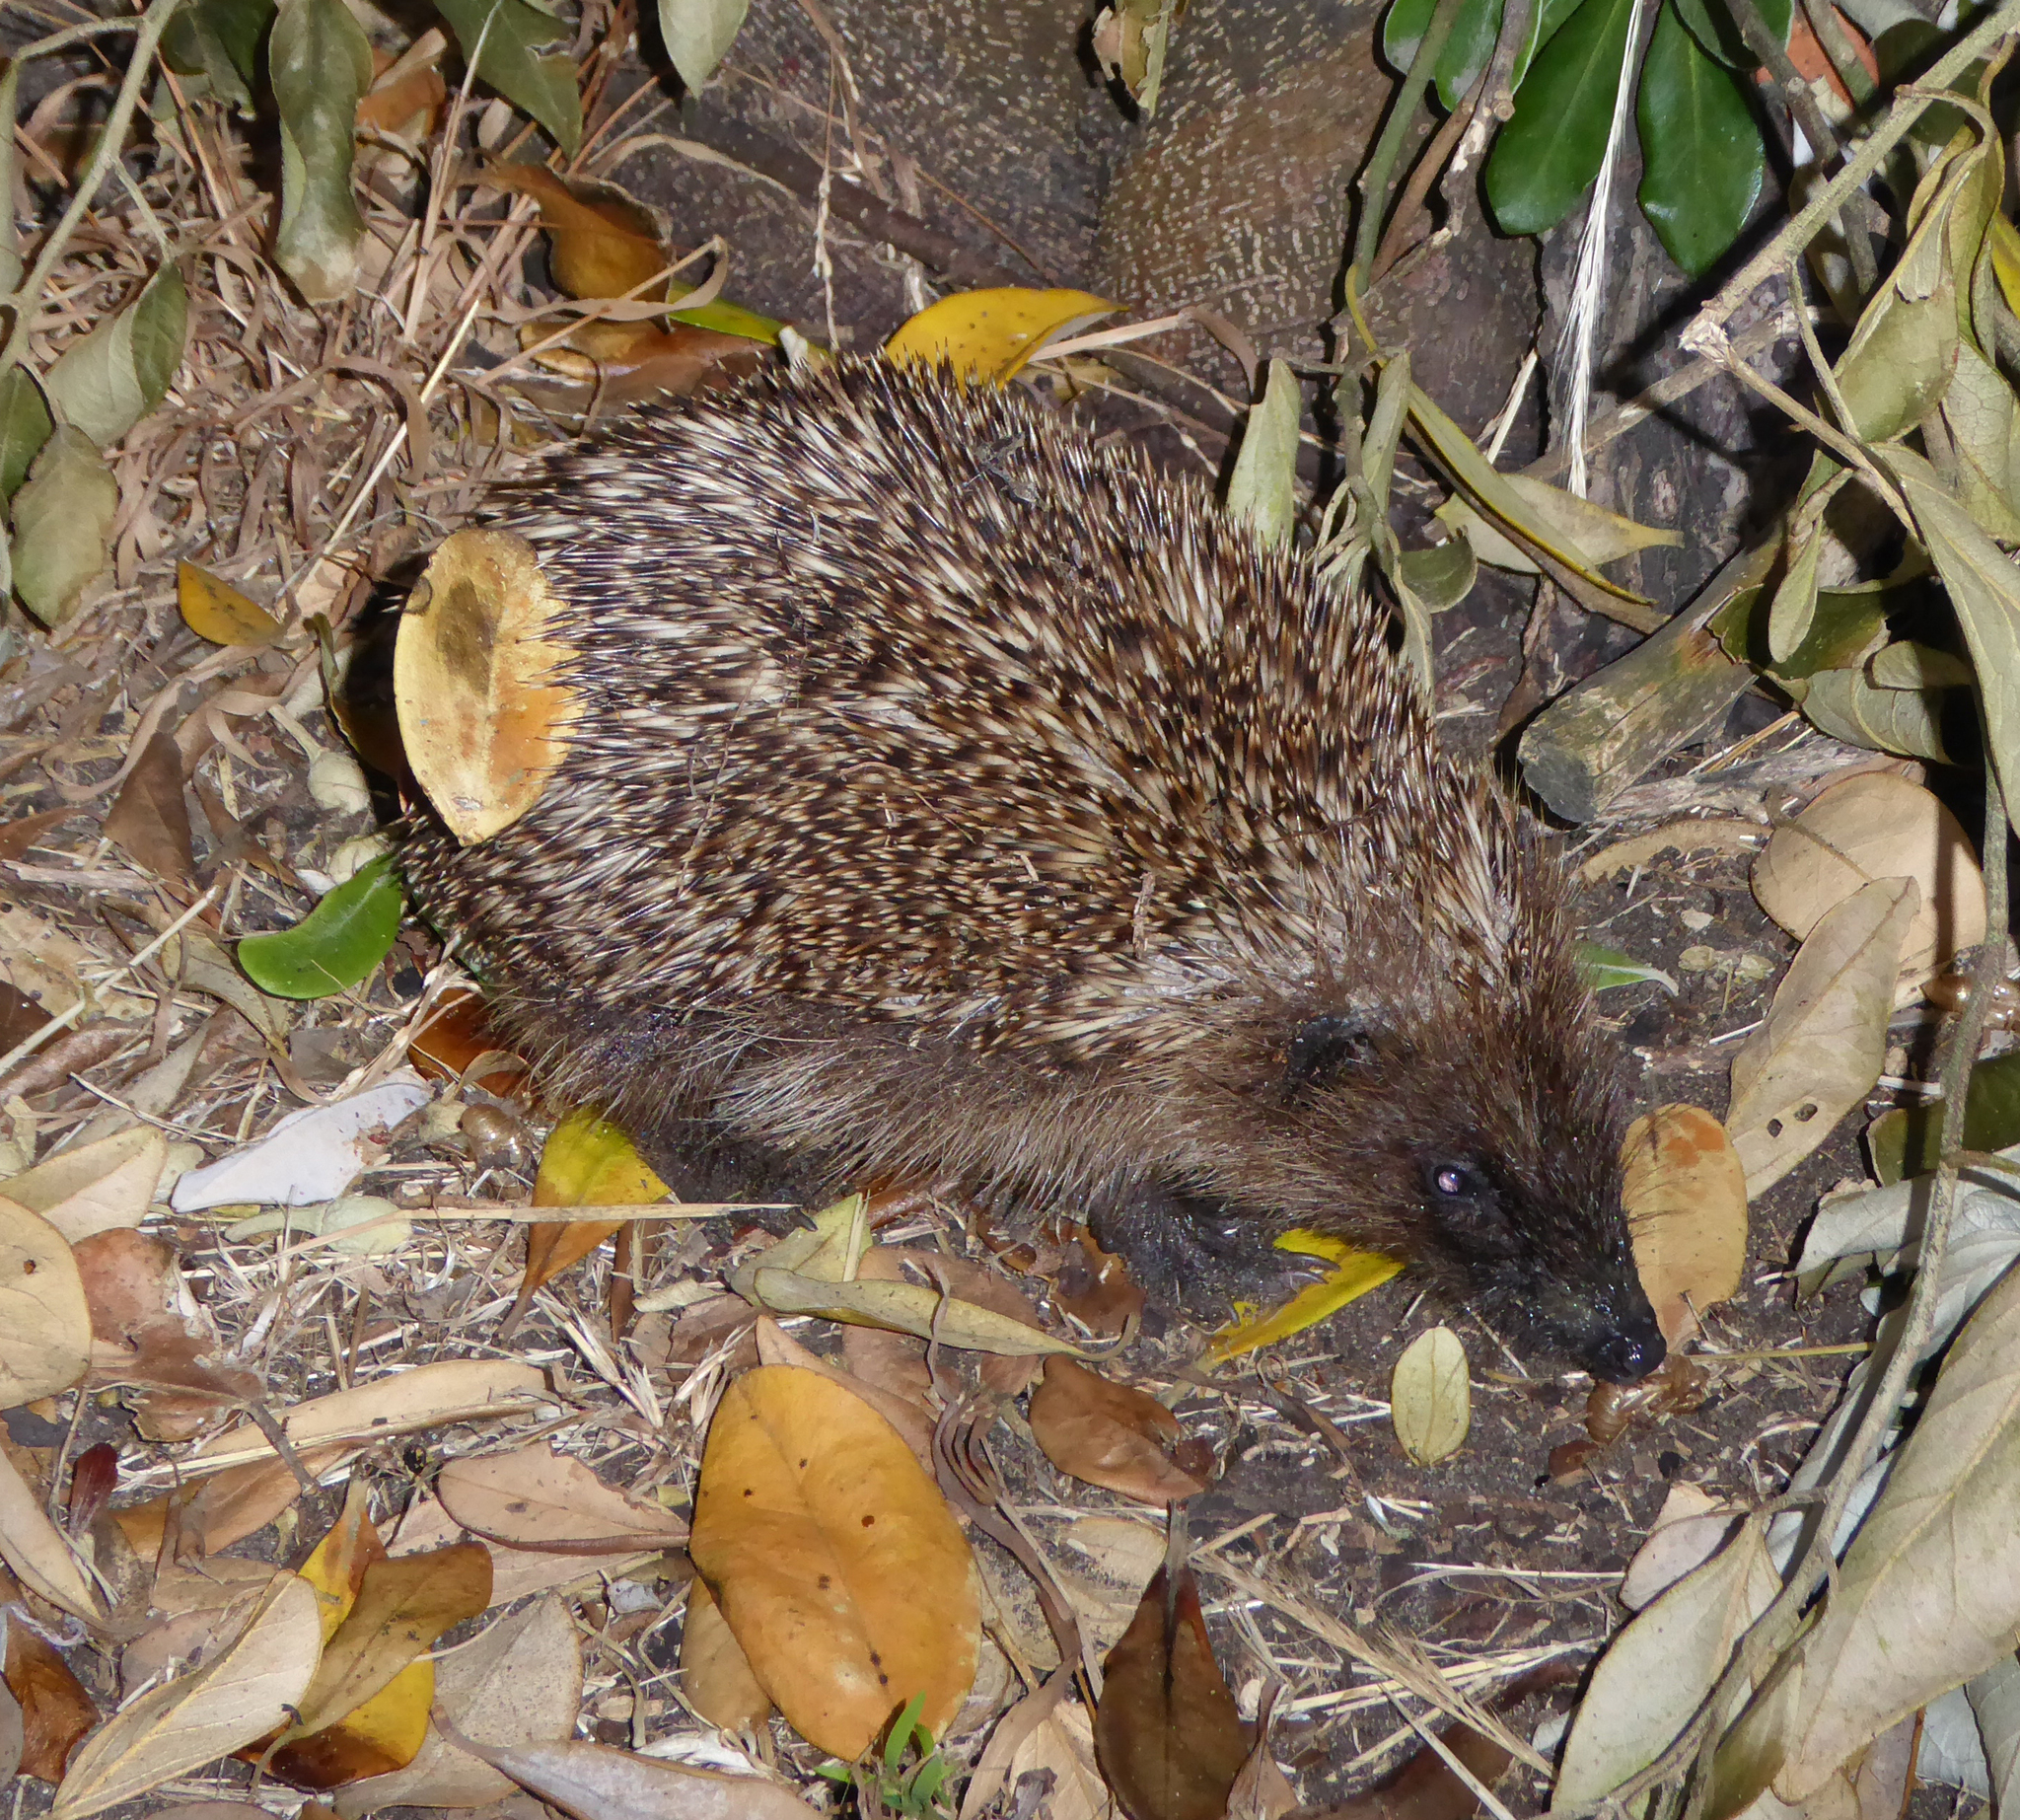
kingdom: Animalia
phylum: Chordata
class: Mammalia
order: Erinaceomorpha
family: Erinaceidae
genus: Erinaceus
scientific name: Erinaceus europaeus
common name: West european hedgehog
